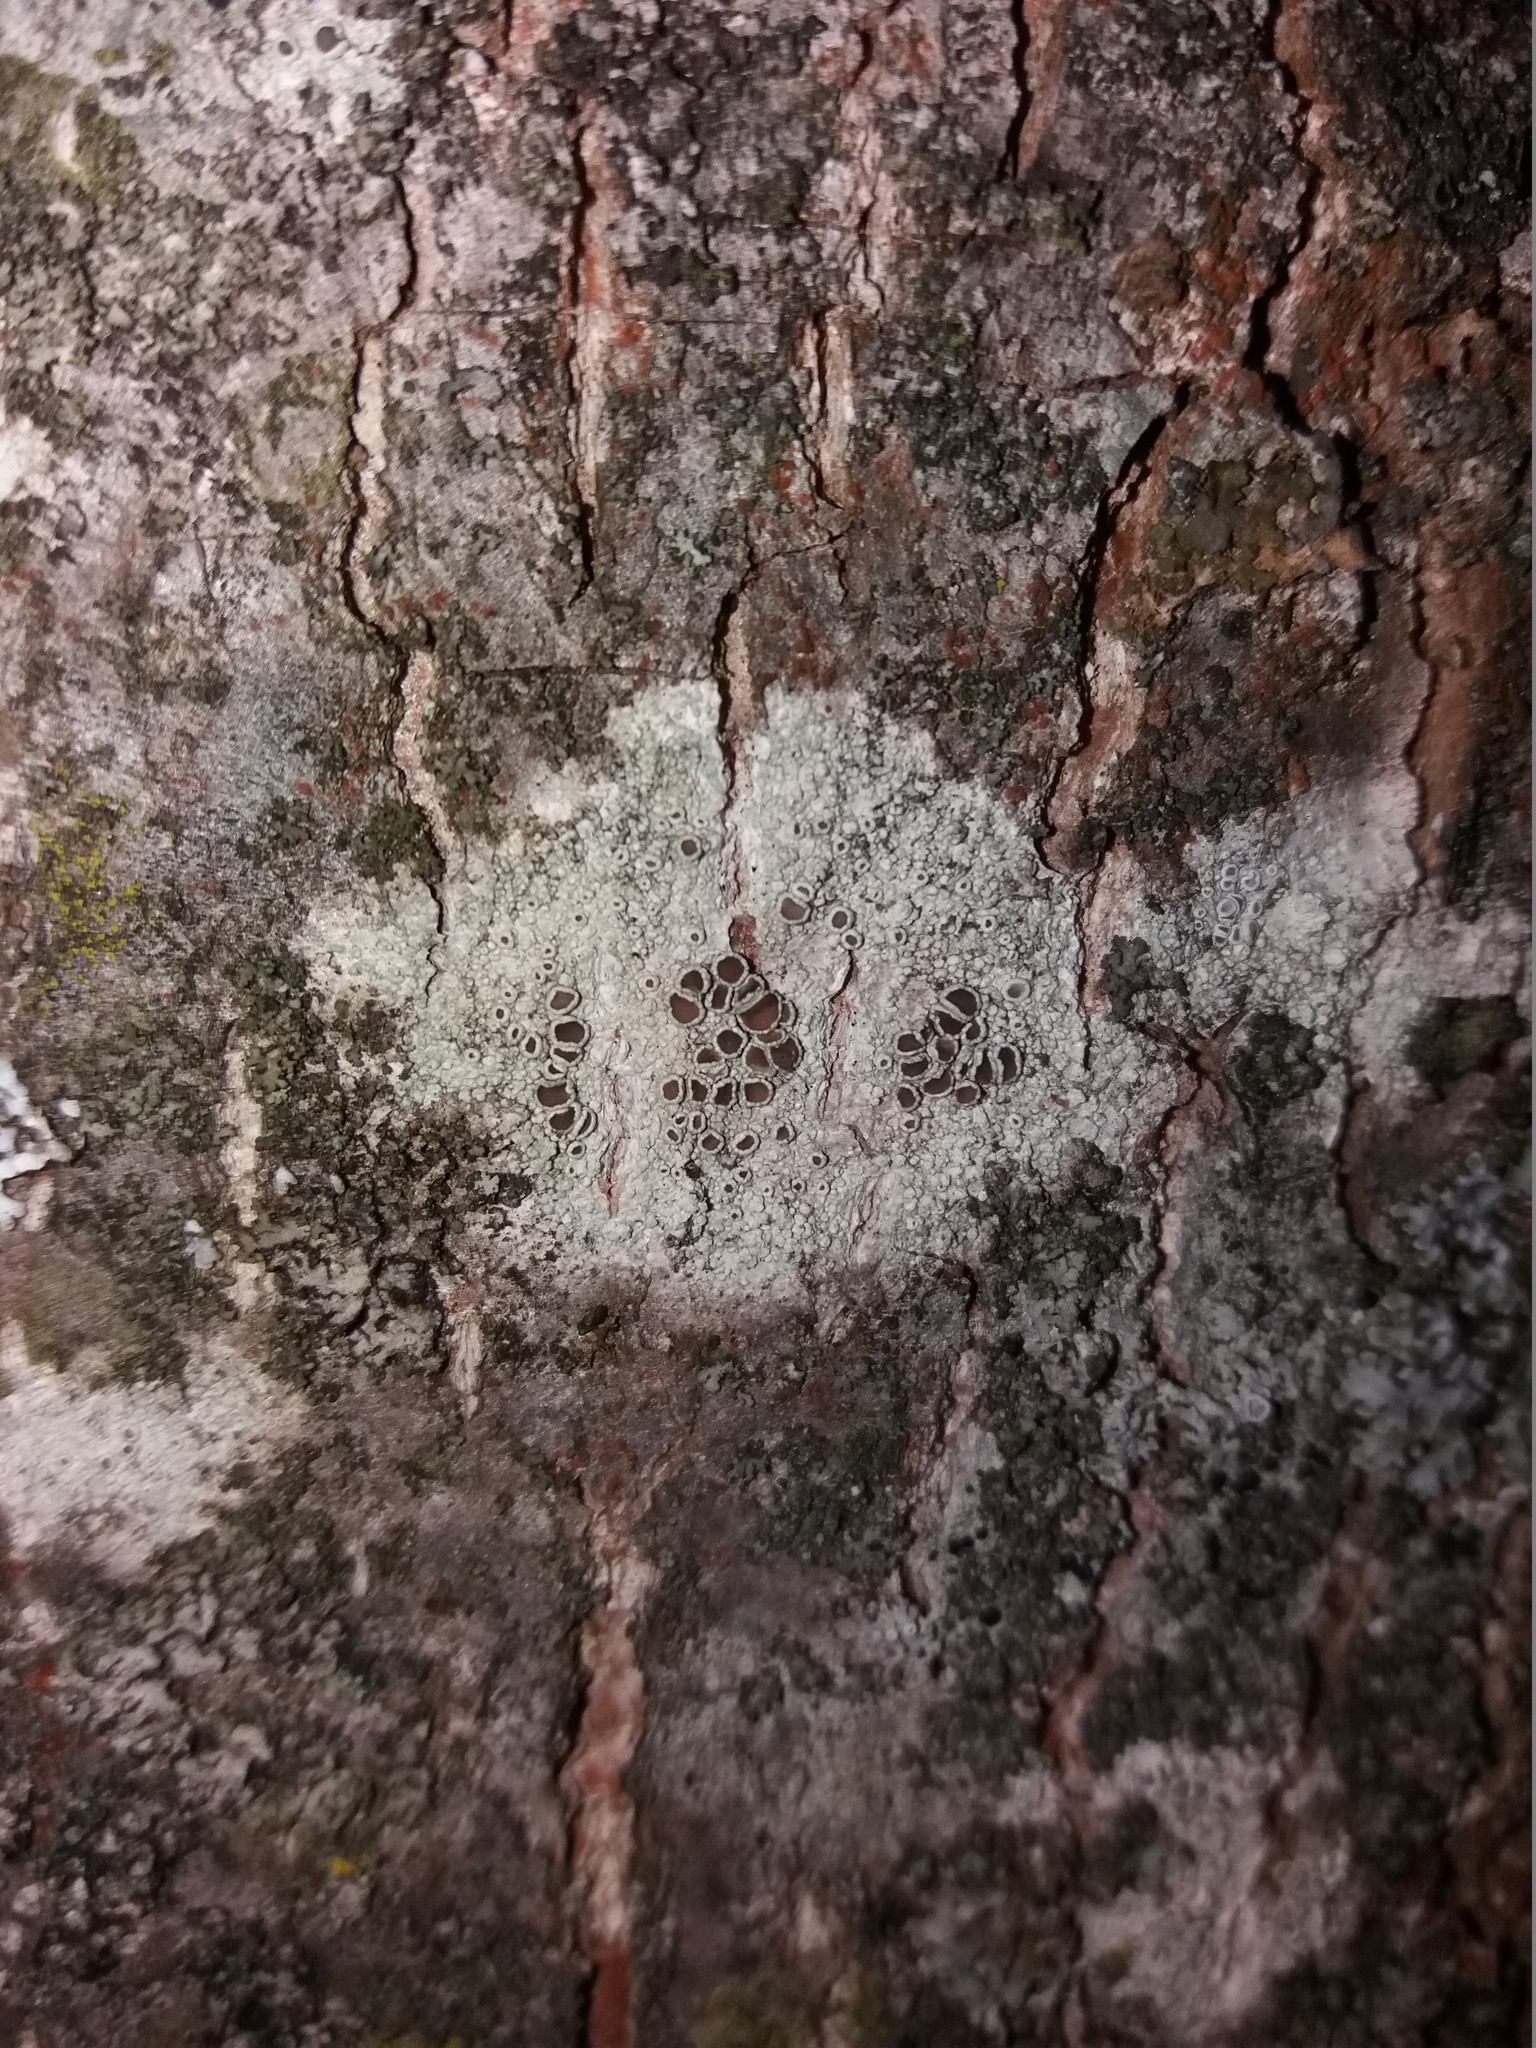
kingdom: Fungi
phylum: Ascomycota
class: Lecanoromycetes
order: Lecanorales
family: Lecanoraceae
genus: Lecanora
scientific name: Lecanora
